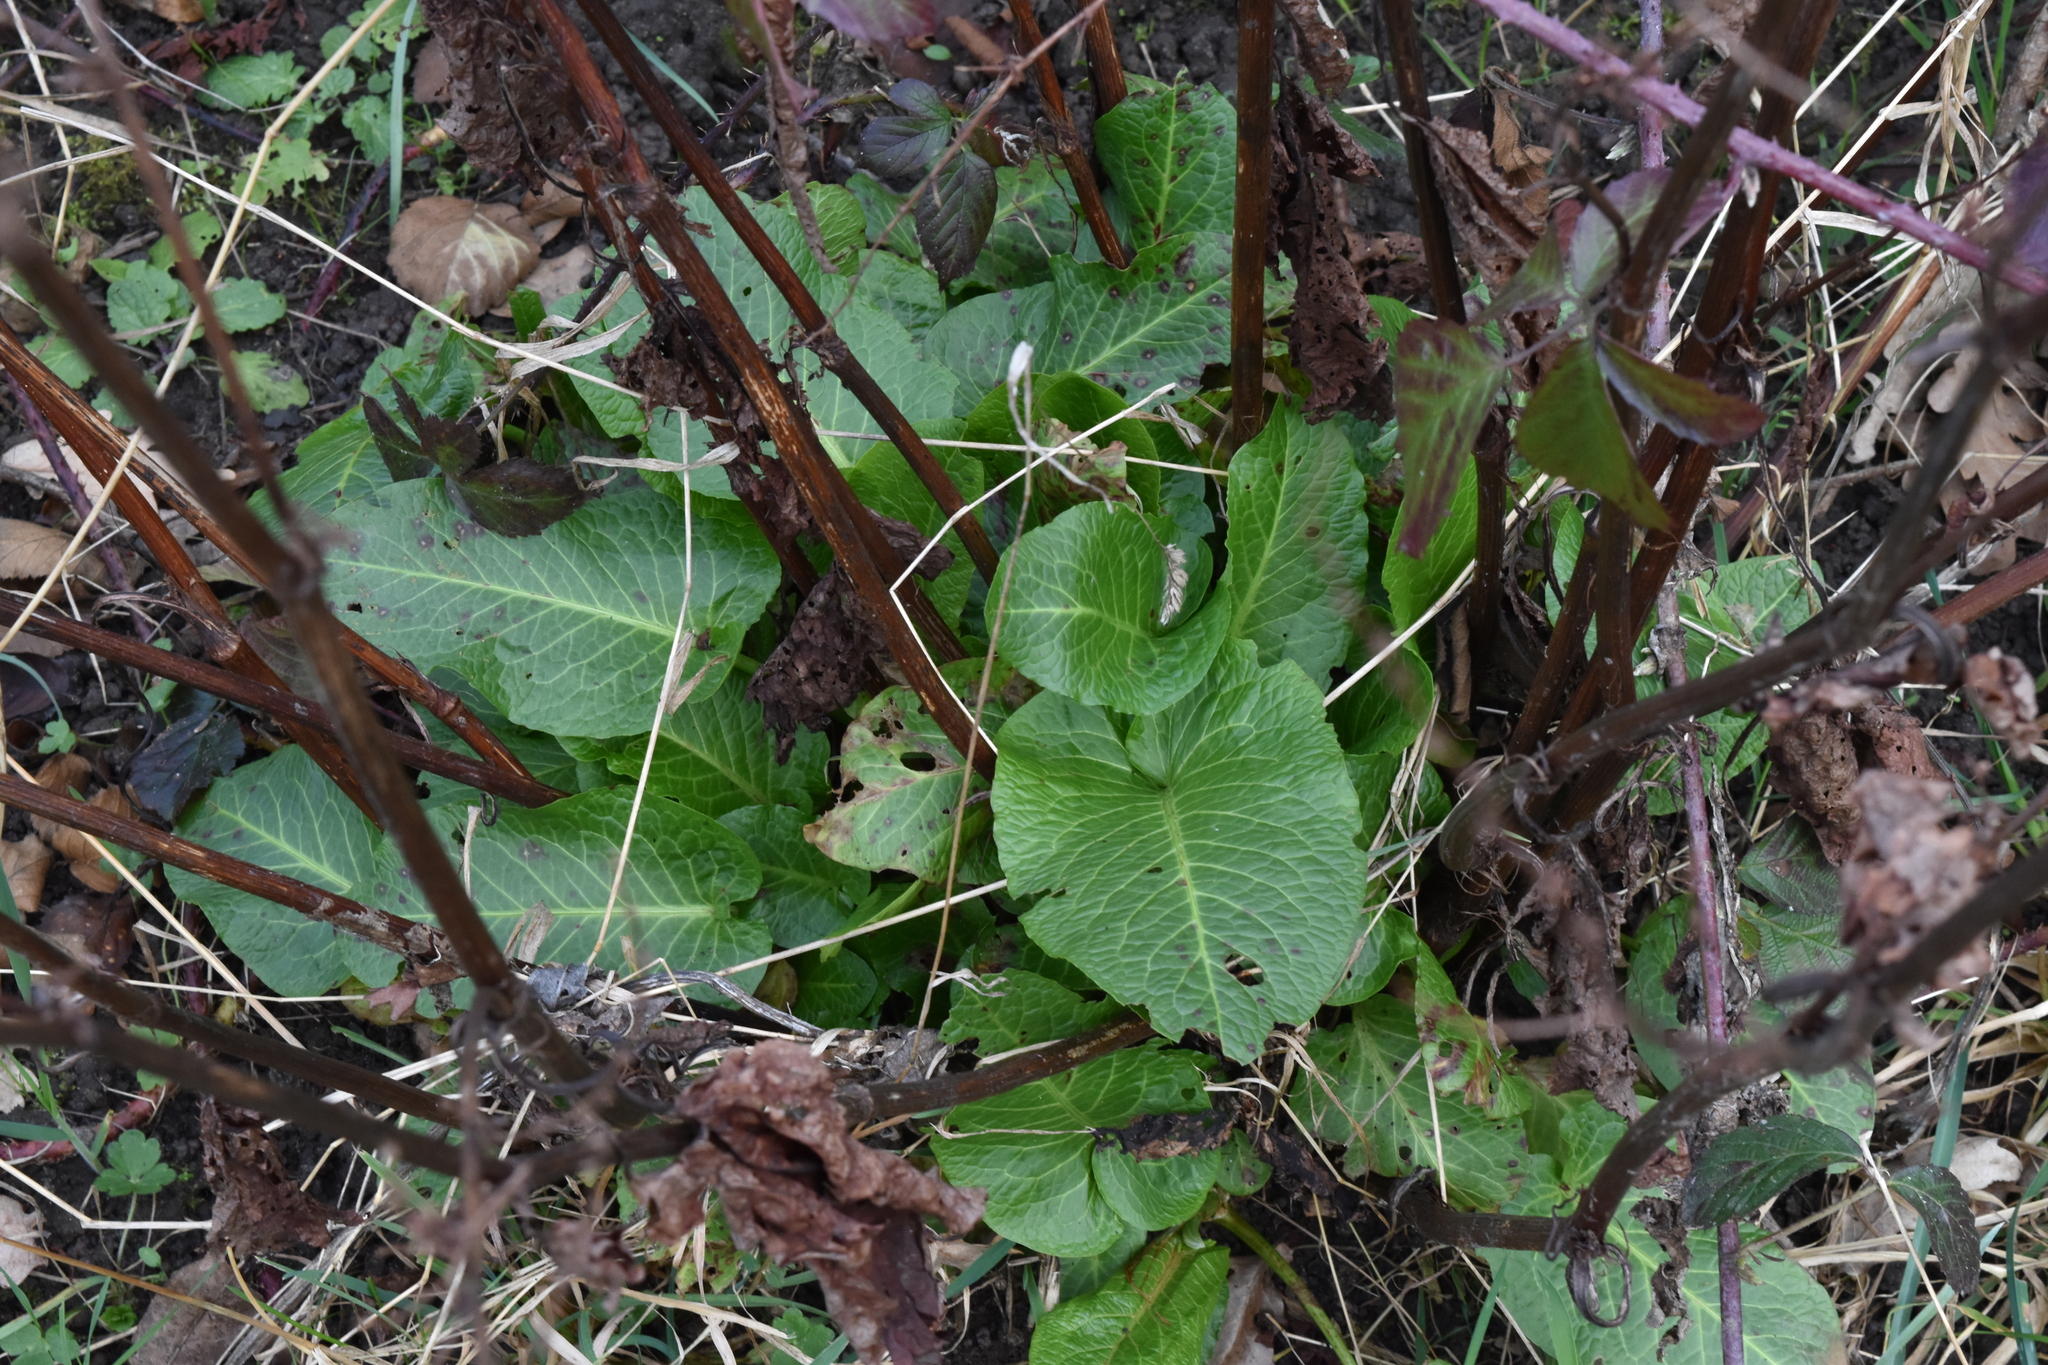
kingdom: Plantae
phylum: Tracheophyta
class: Magnoliopsida
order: Caryophyllales
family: Polygonaceae
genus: Rumex
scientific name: Rumex obtusifolius
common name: Bitter dock
